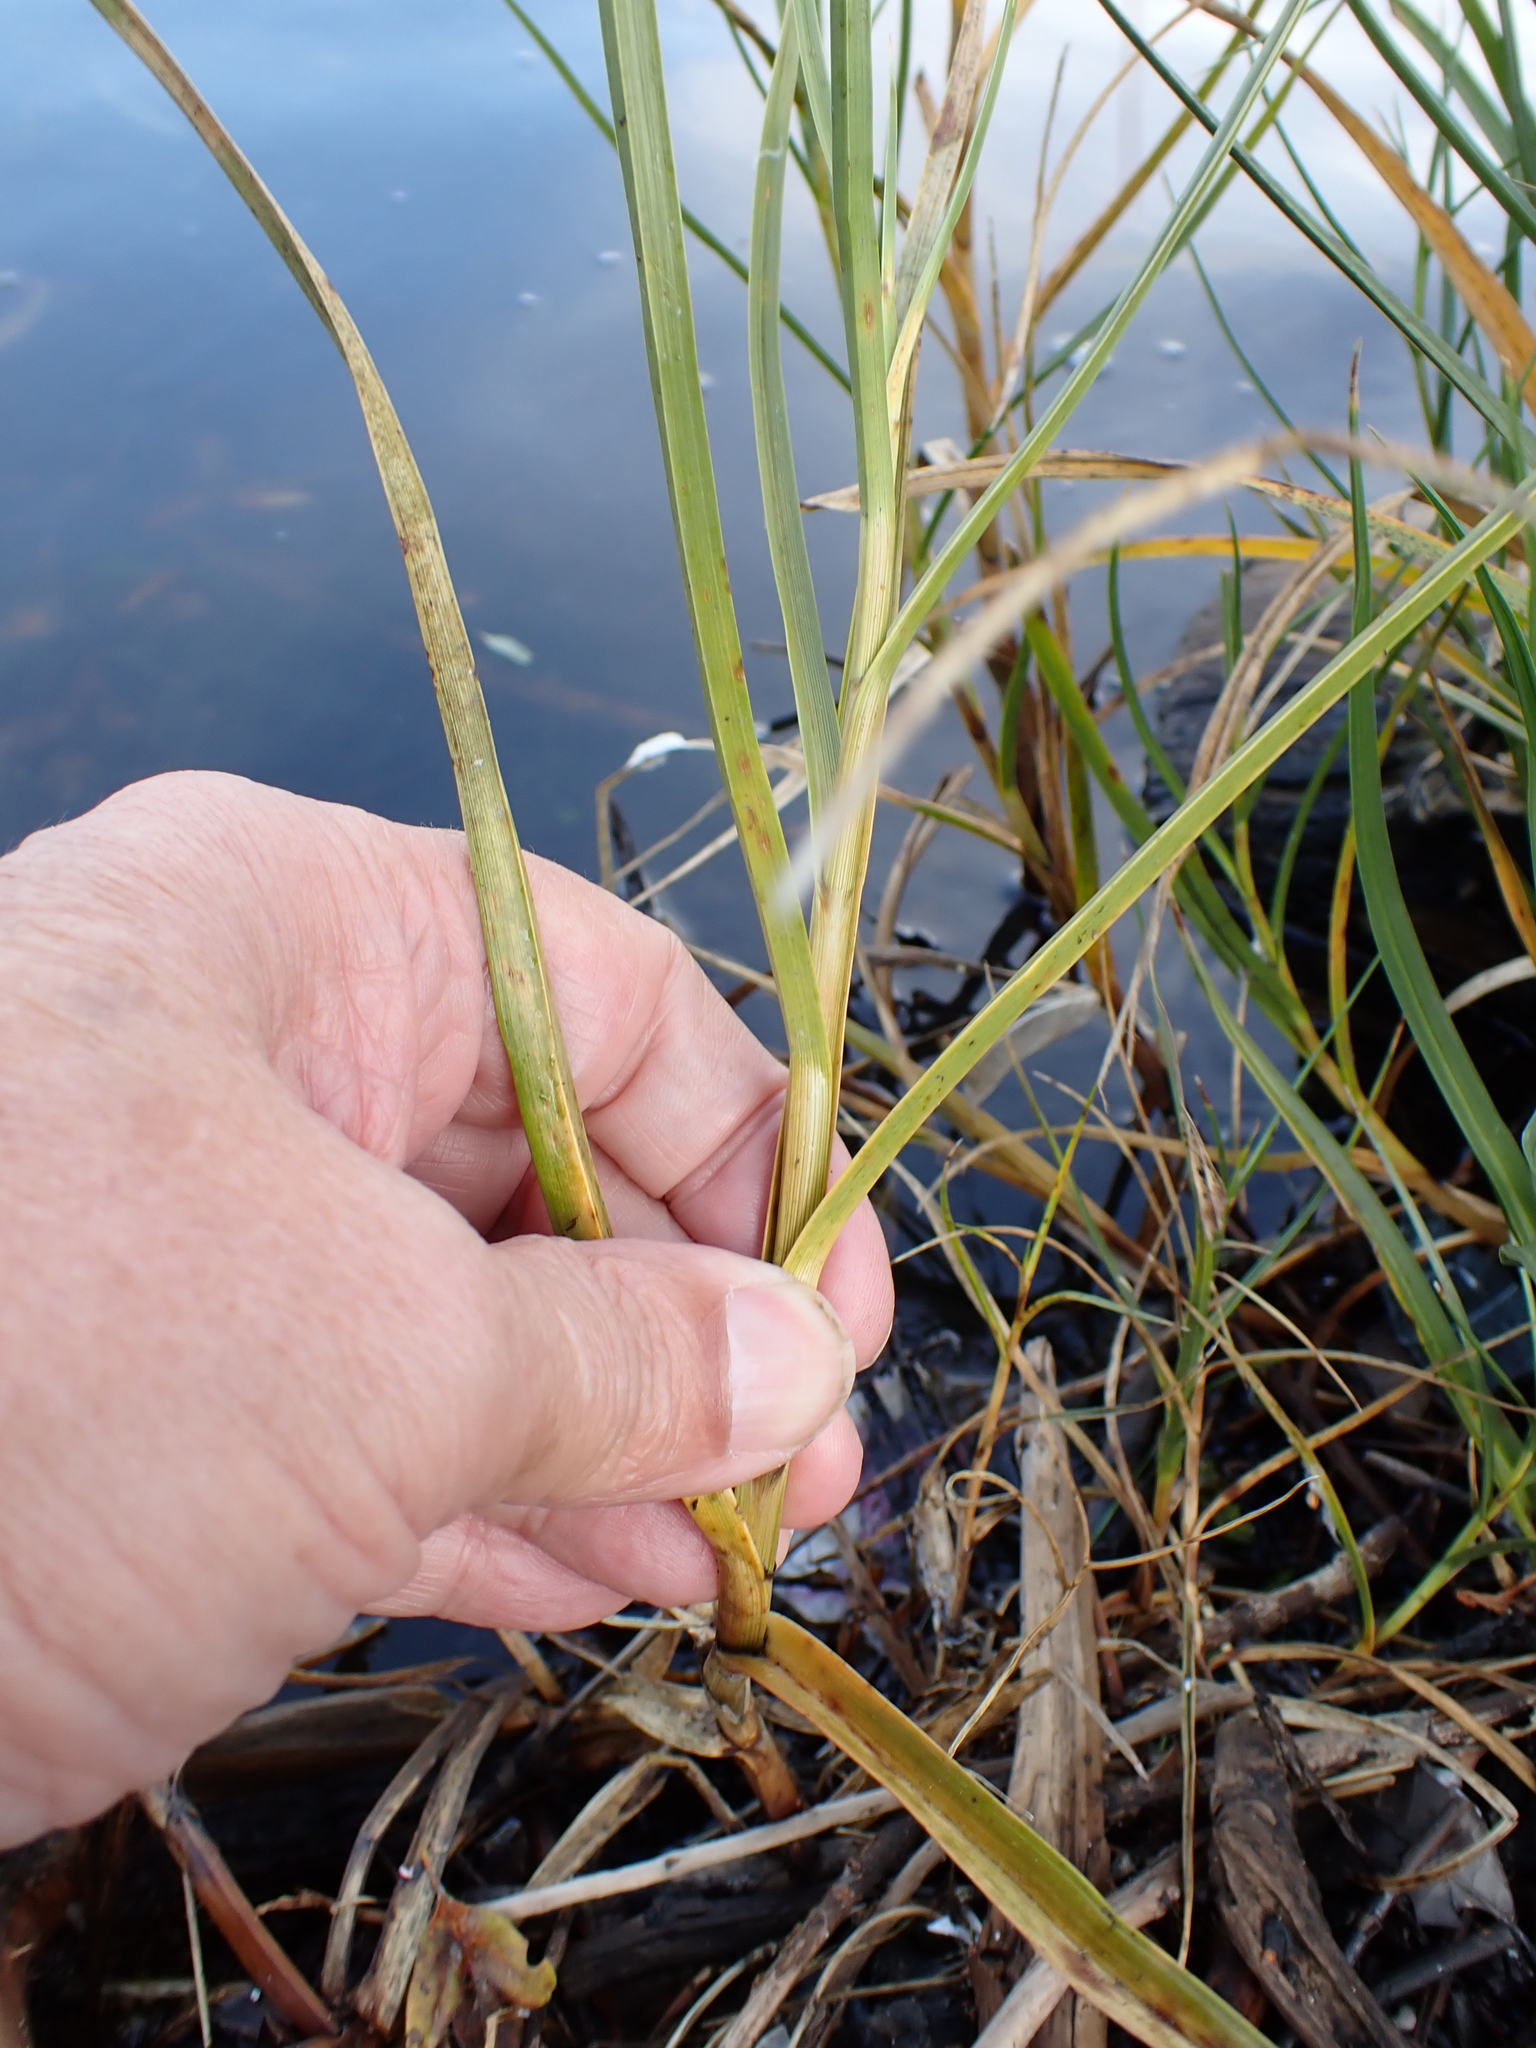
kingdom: Plantae
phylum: Tracheophyta
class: Liliopsida
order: Poales
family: Cyperaceae
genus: Bolboschoenus
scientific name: Bolboschoenus maritimus
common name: Sea club-rush
